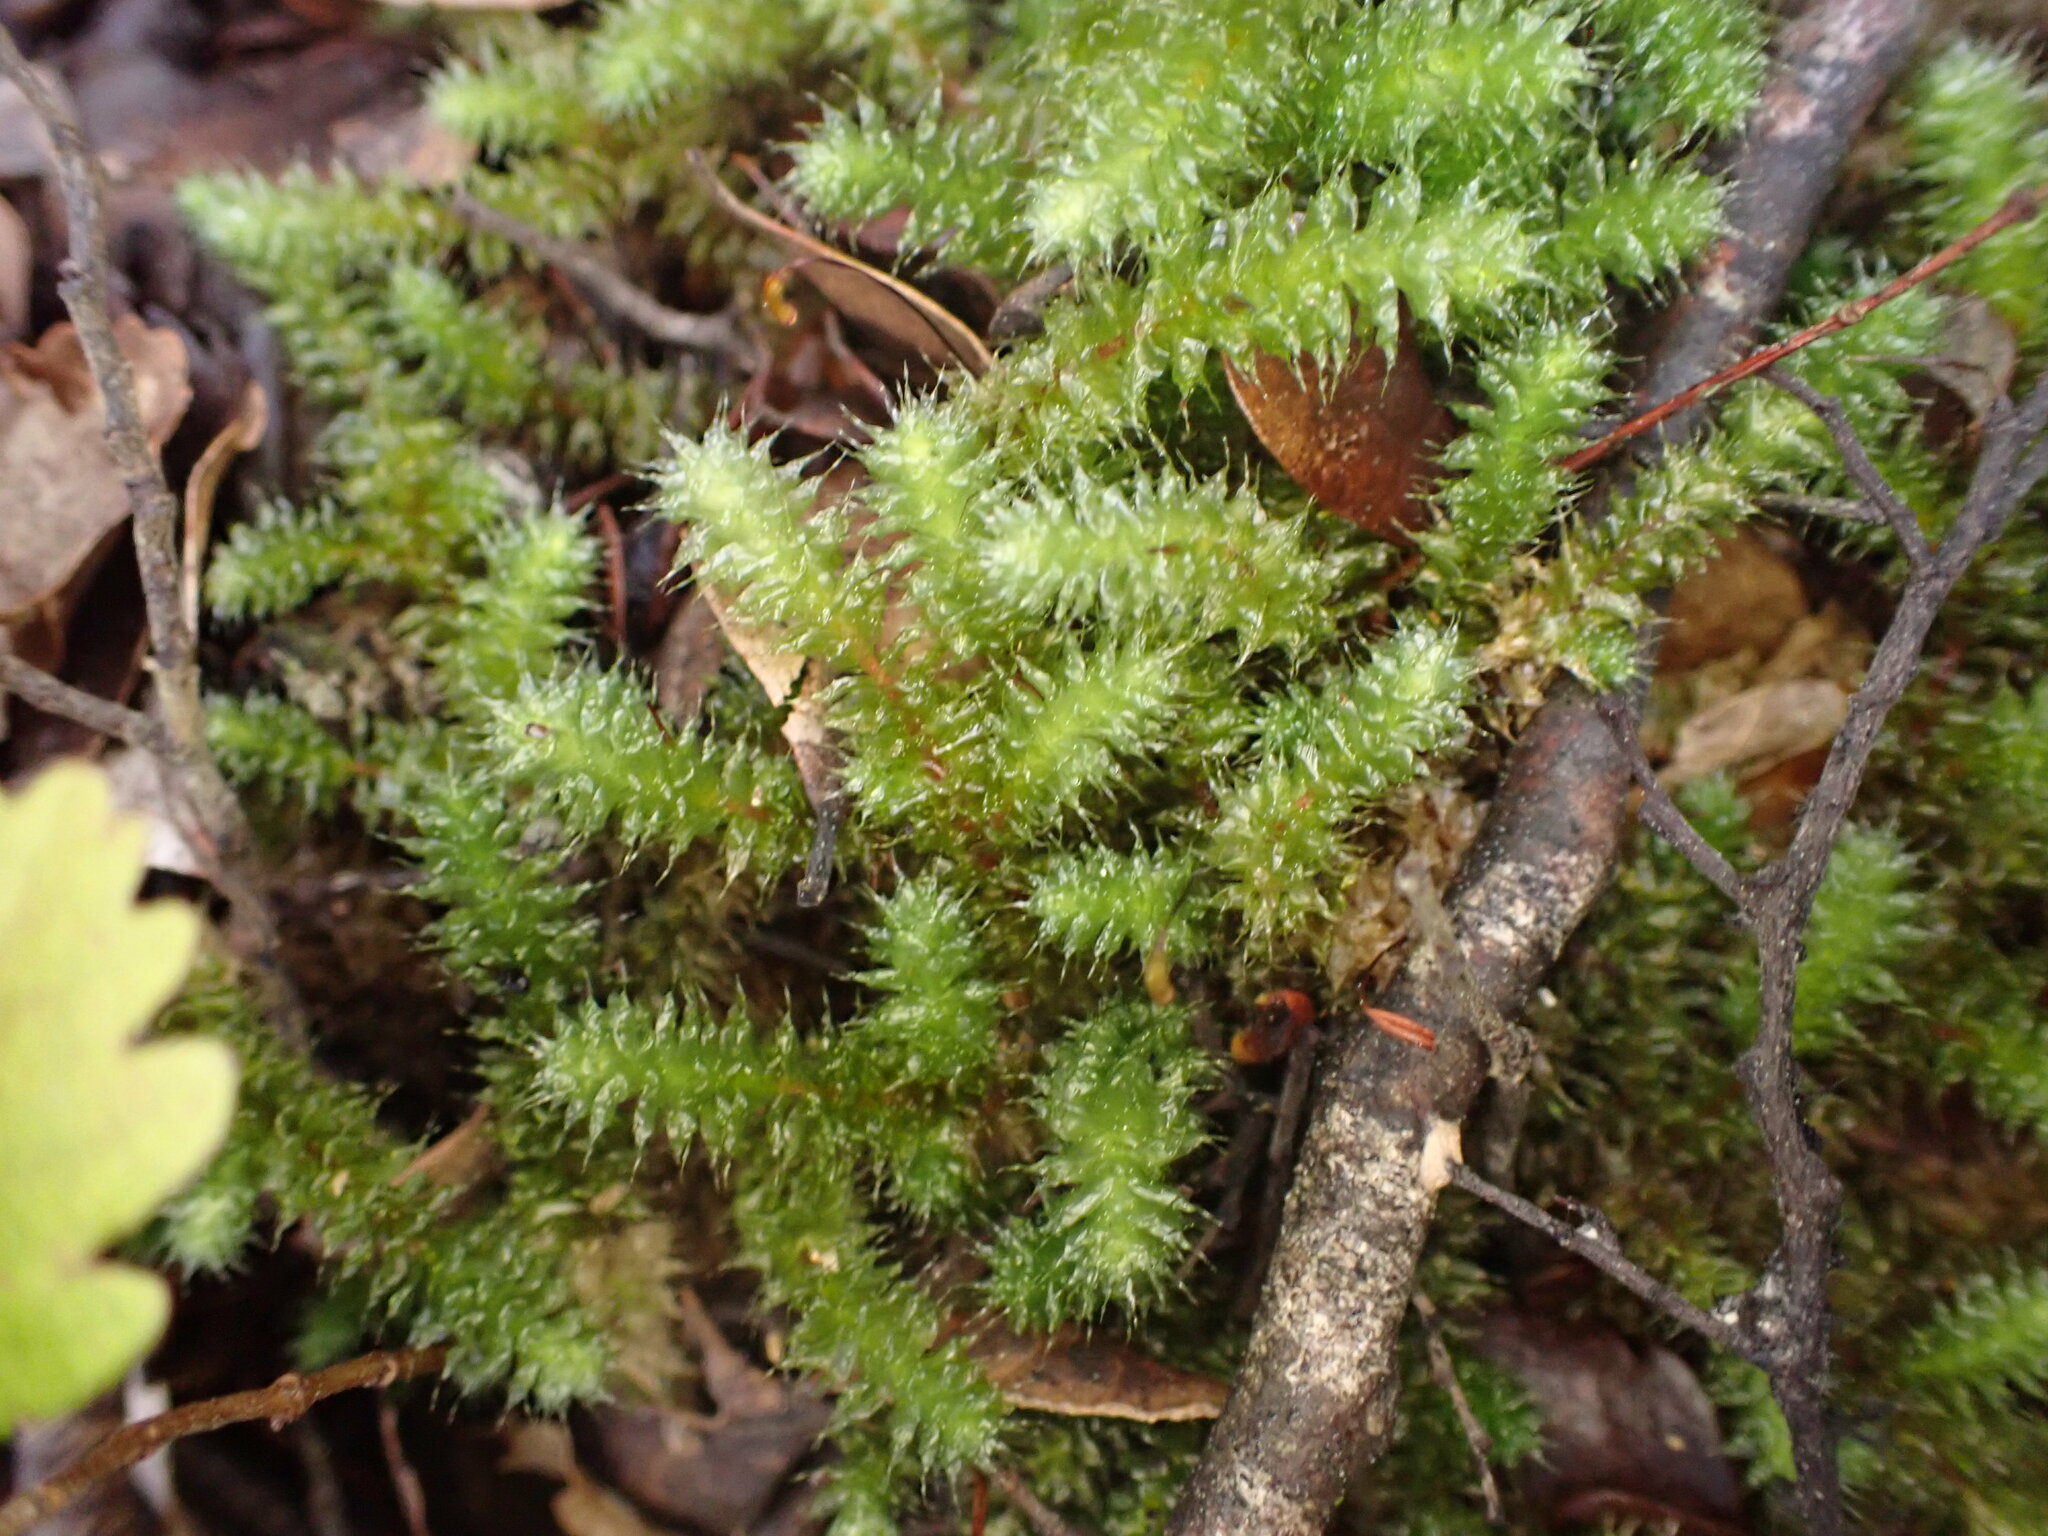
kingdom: Plantae
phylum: Bryophyta
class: Bryopsida
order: Ptychomniales
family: Ptychomniaceae
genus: Ptychomnion
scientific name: Ptychomnion aciculare
